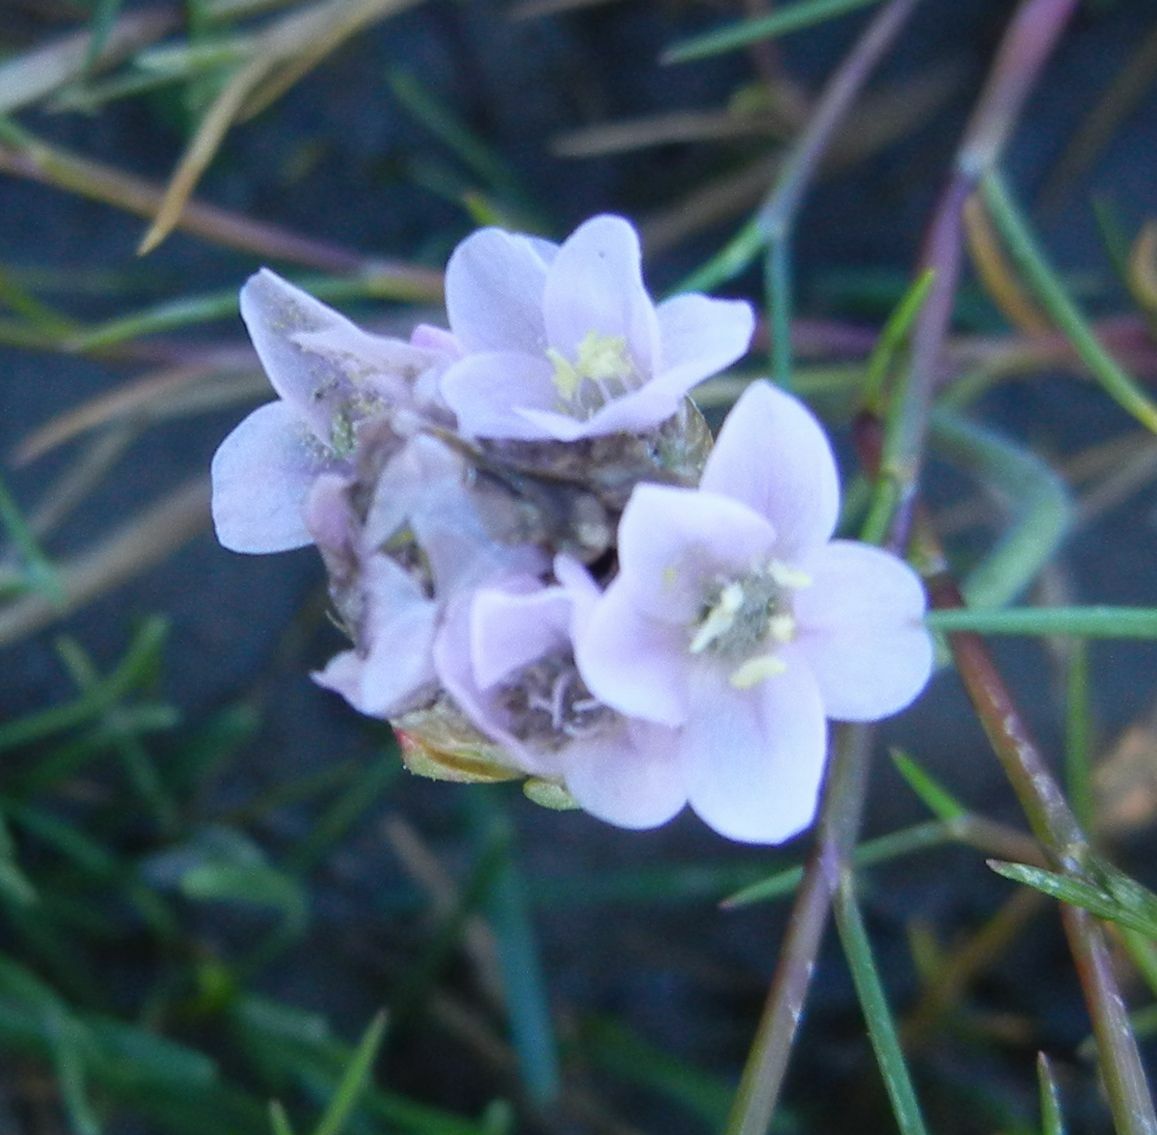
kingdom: Plantae
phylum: Tracheophyta
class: Magnoliopsida
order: Caryophyllales
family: Plumbaginaceae
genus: Armeria
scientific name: Armeria maritima
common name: Thrift
